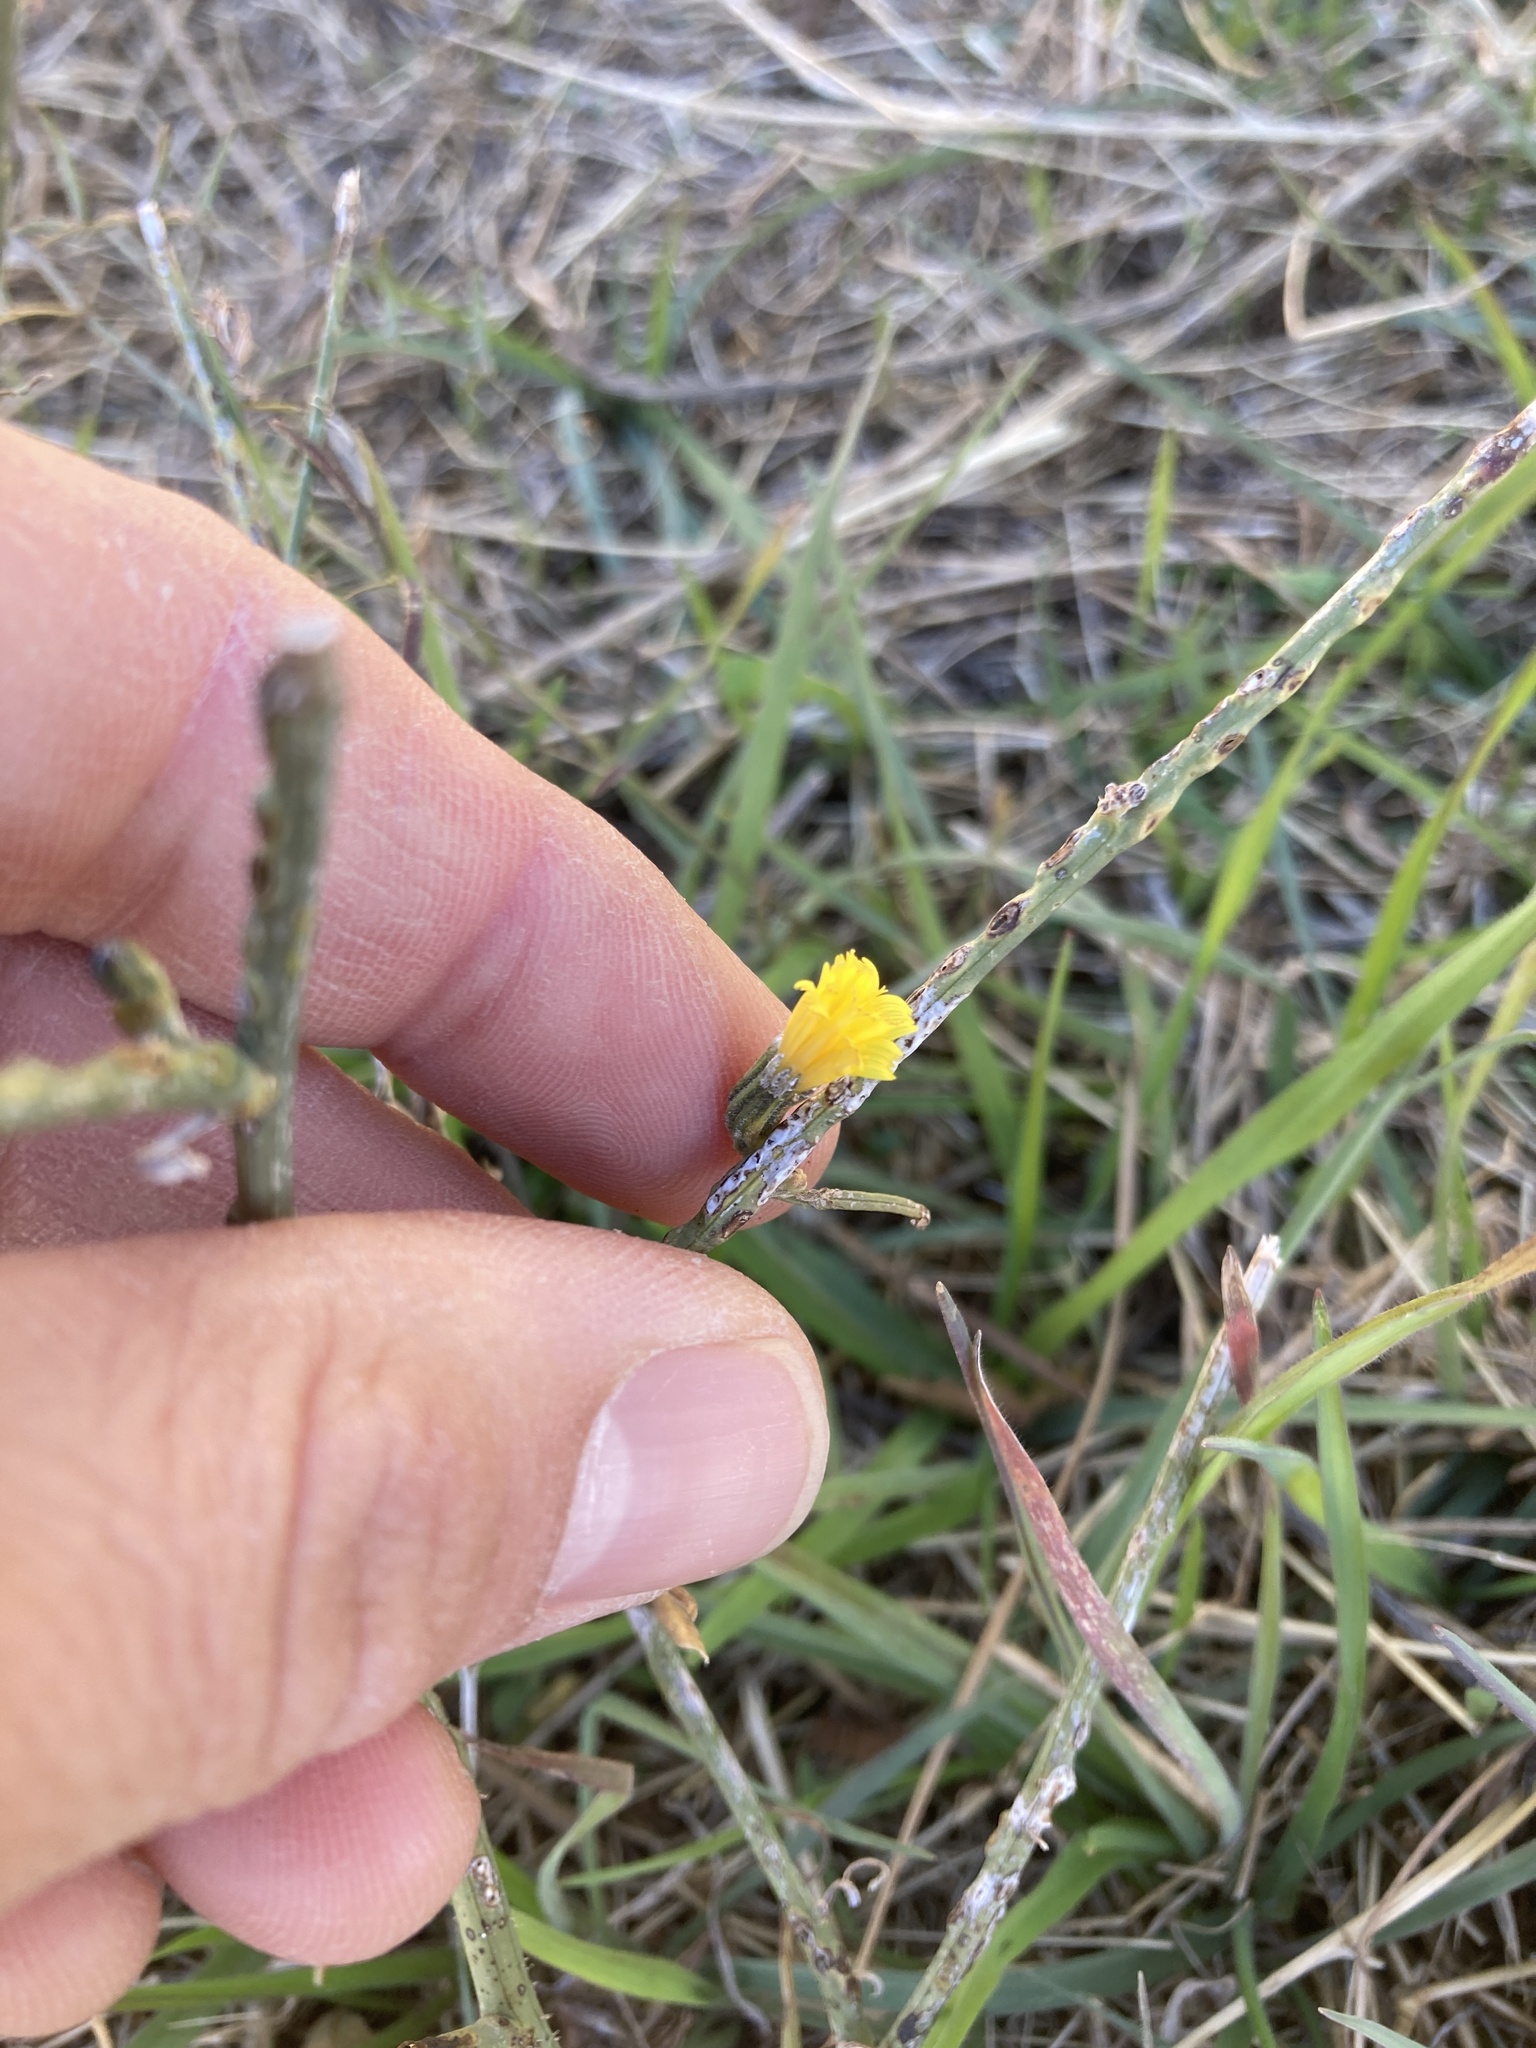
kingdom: Plantae
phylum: Tracheophyta
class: Magnoliopsida
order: Asterales
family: Asteraceae
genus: Chondrilla
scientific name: Chondrilla juncea
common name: Skeleton weed
